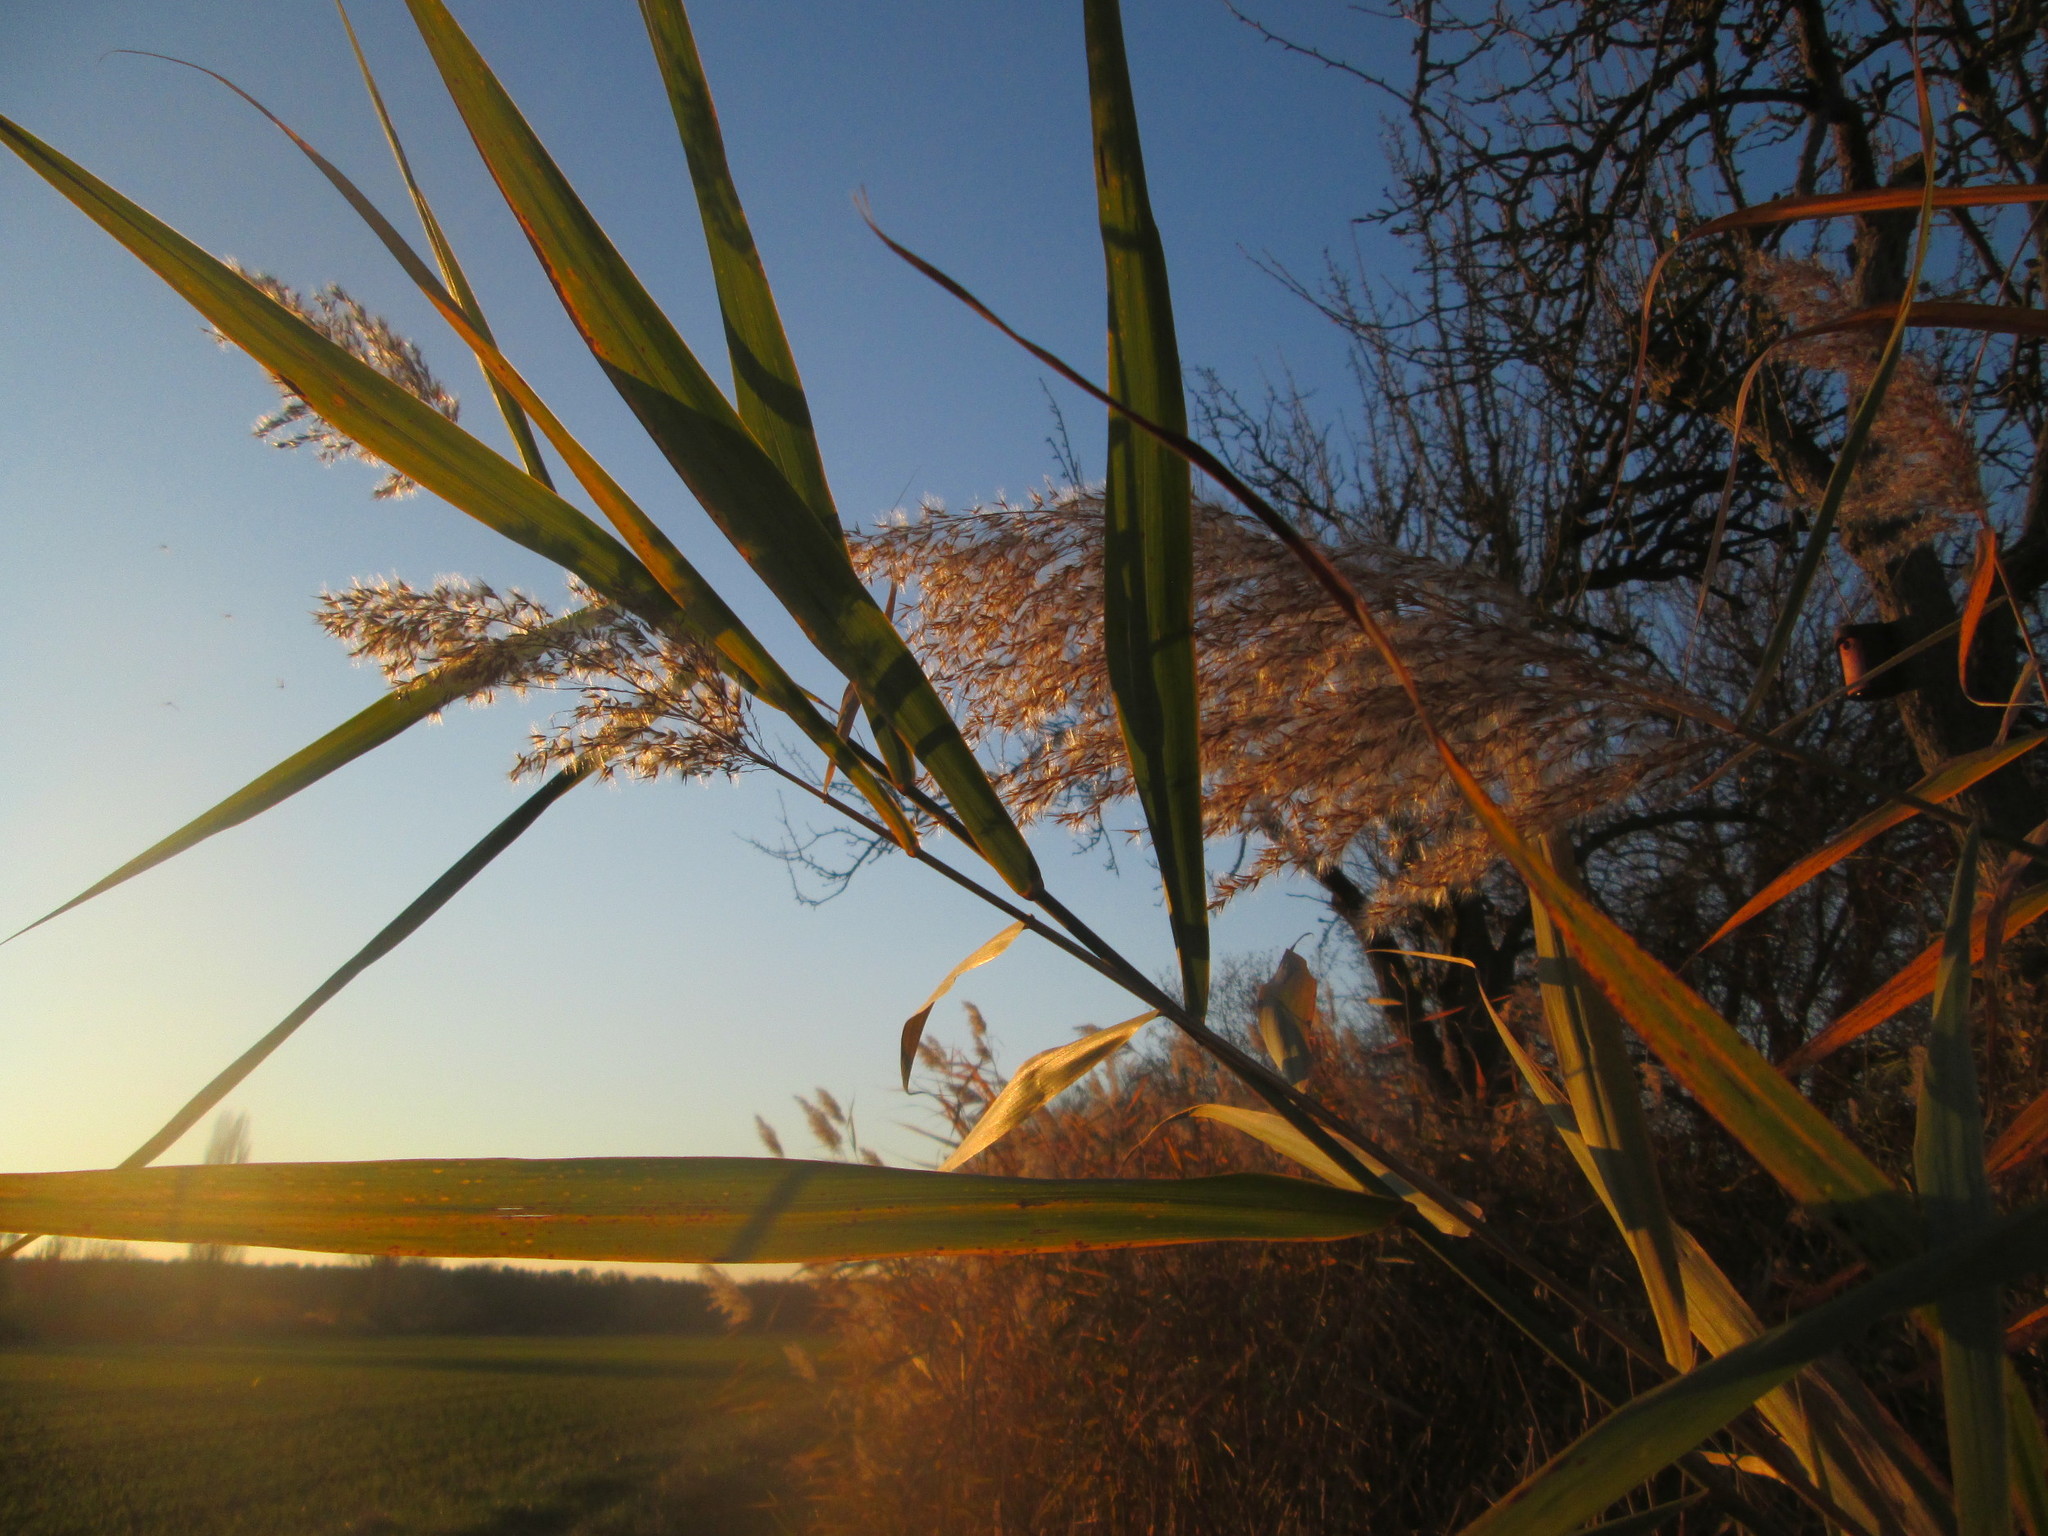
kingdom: Plantae
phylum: Tracheophyta
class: Liliopsida
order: Poales
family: Poaceae
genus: Phragmites
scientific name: Phragmites australis
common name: Common reed
